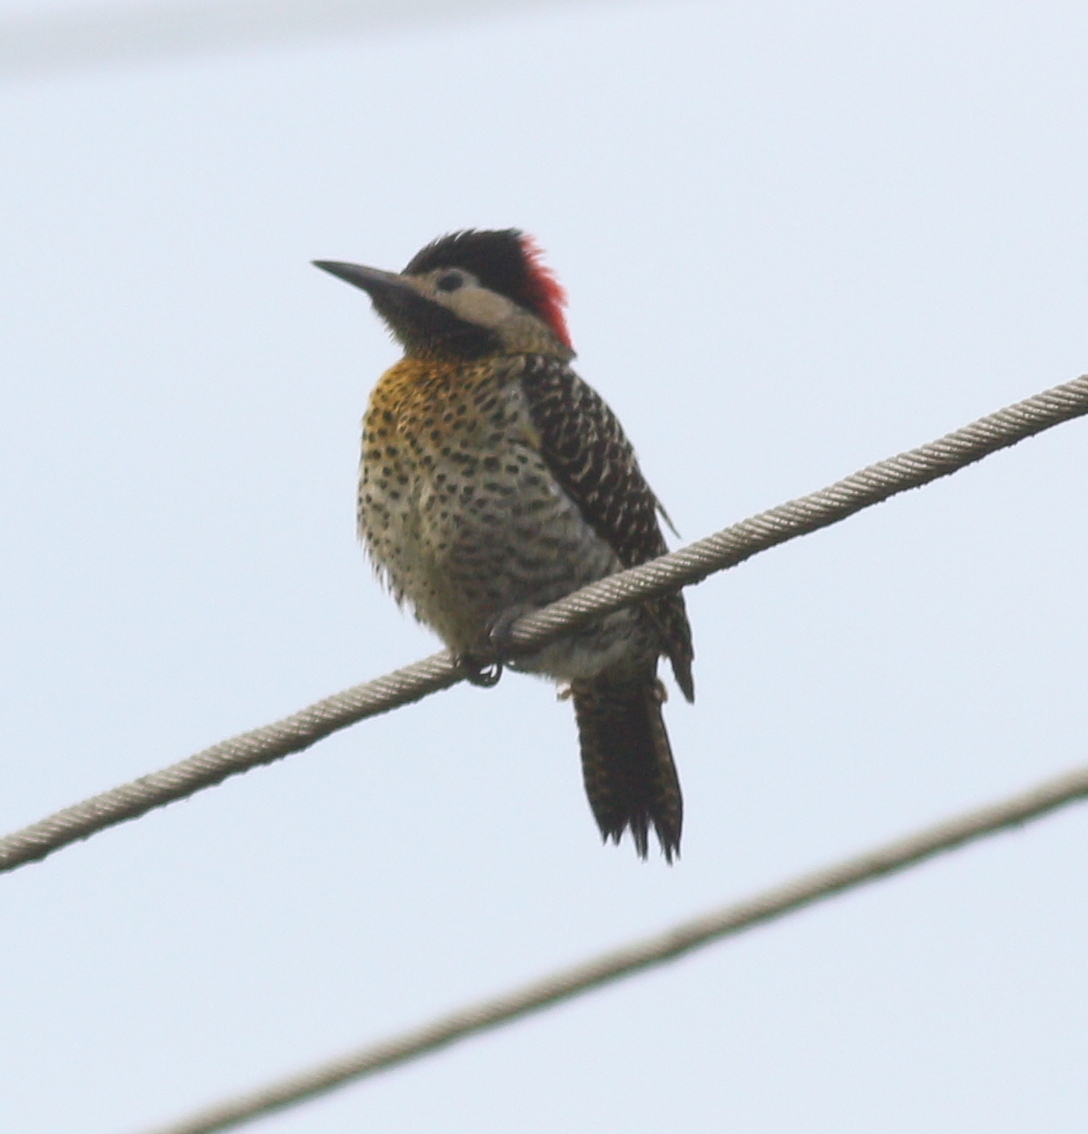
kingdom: Animalia
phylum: Chordata
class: Aves
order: Piciformes
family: Picidae
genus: Colaptes
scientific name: Colaptes melanochloros
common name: Green-barred woodpecker
